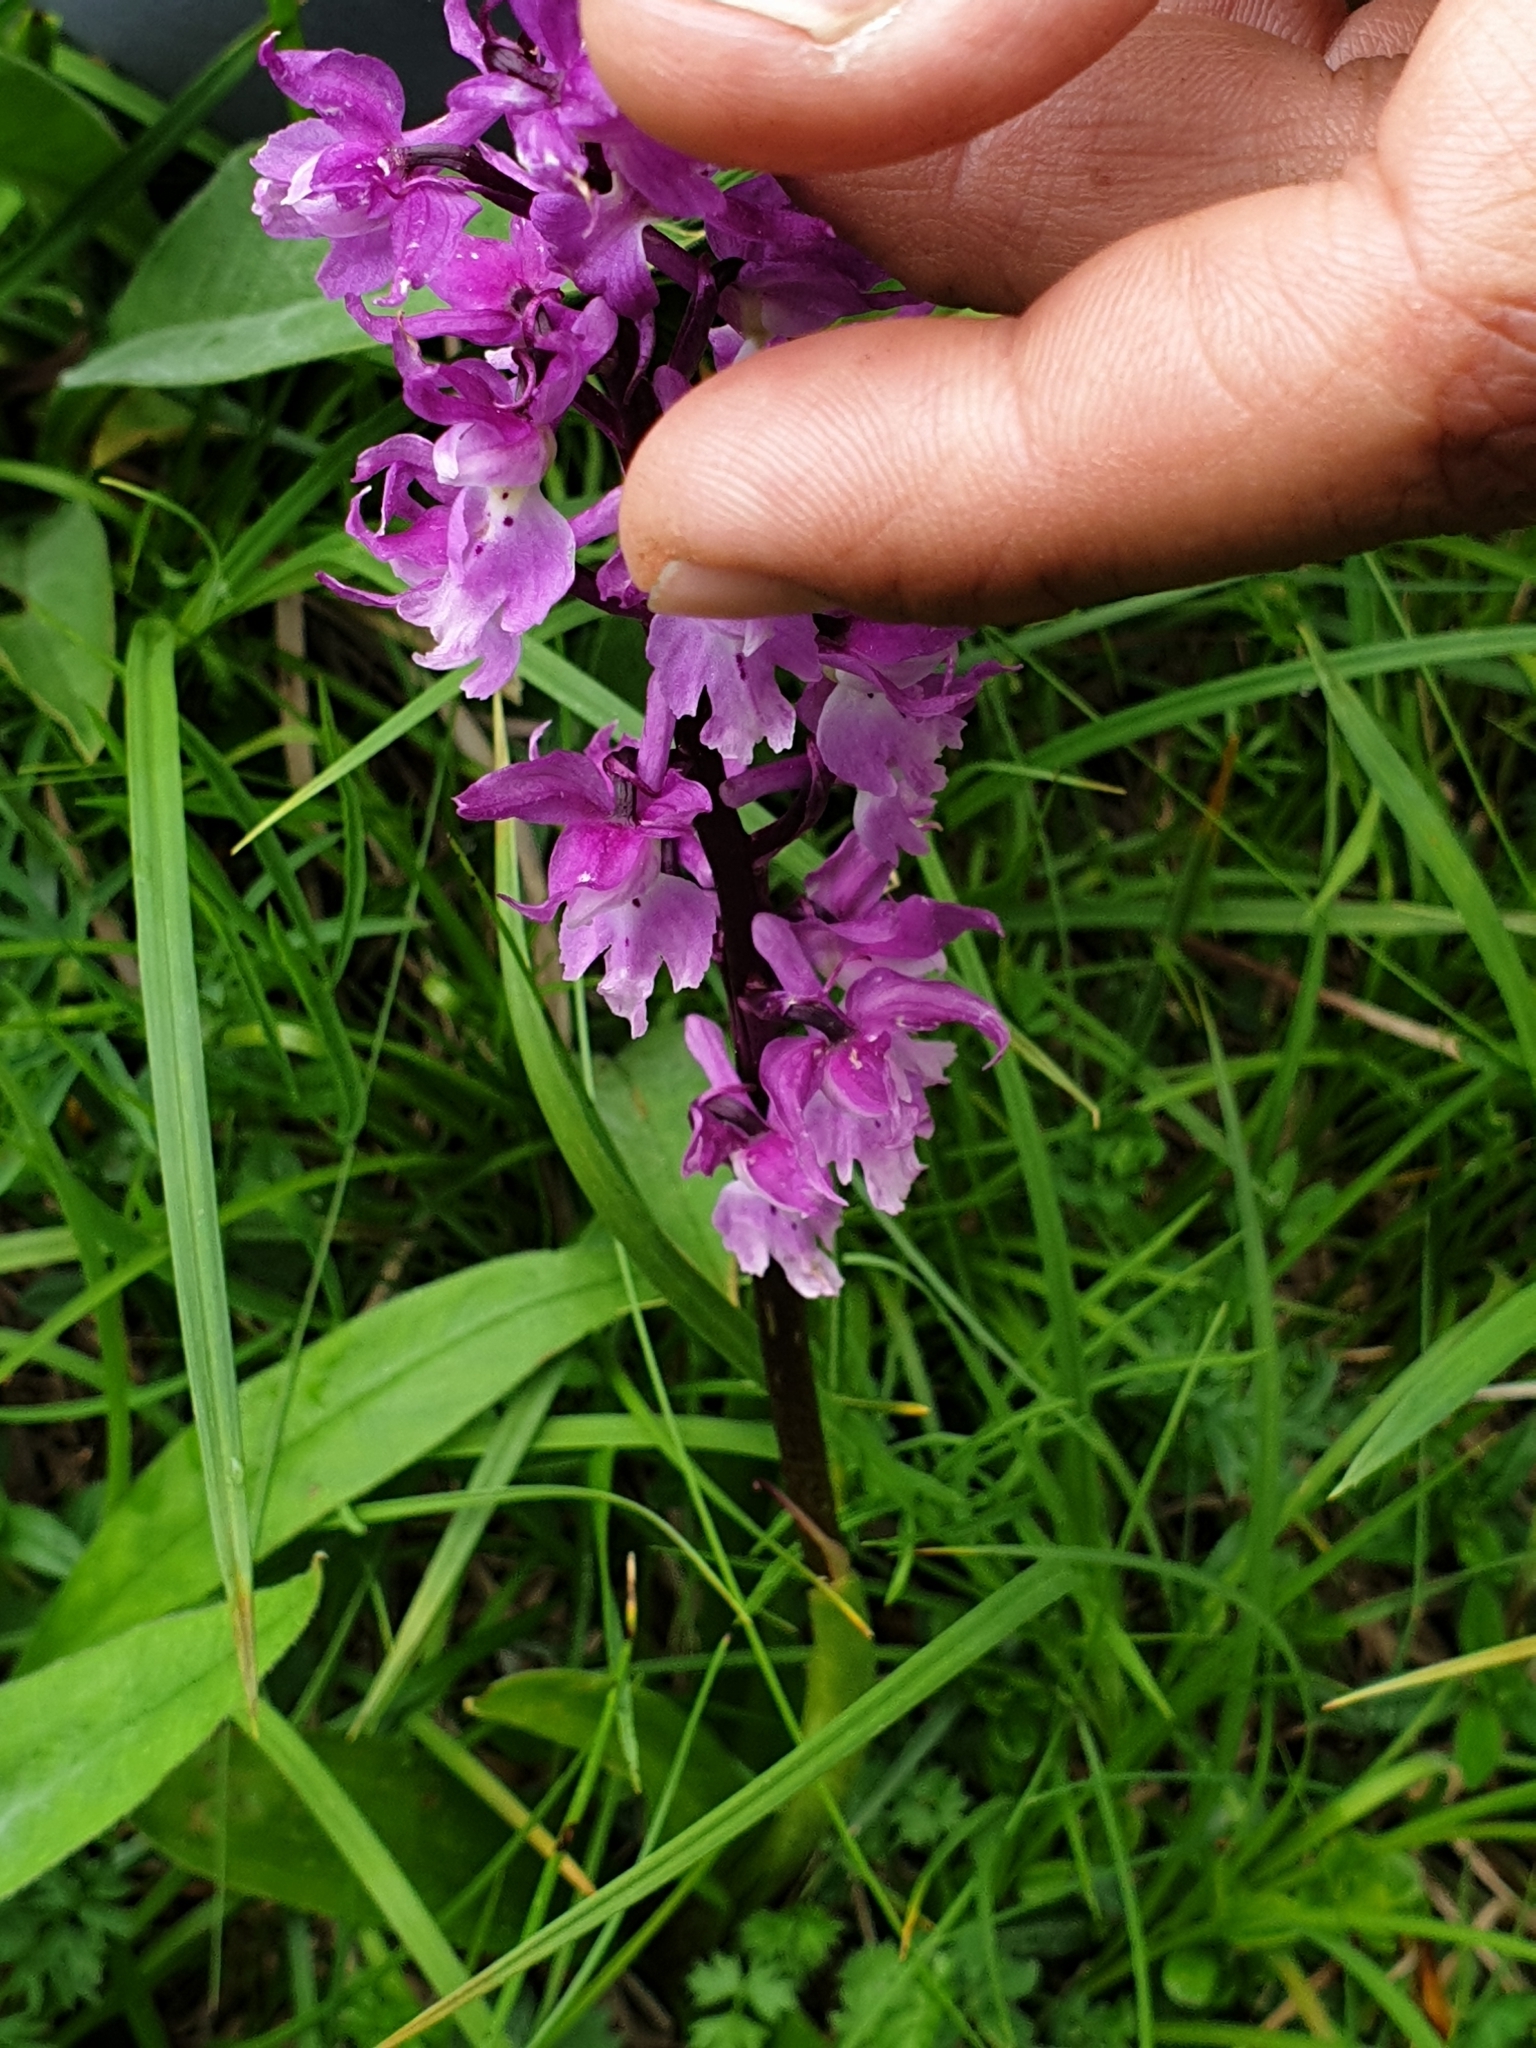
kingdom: Plantae
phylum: Tracheophyta
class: Liliopsida
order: Asparagales
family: Orchidaceae
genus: Orchis
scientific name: Orchis mascula
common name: Early-purple orchid
